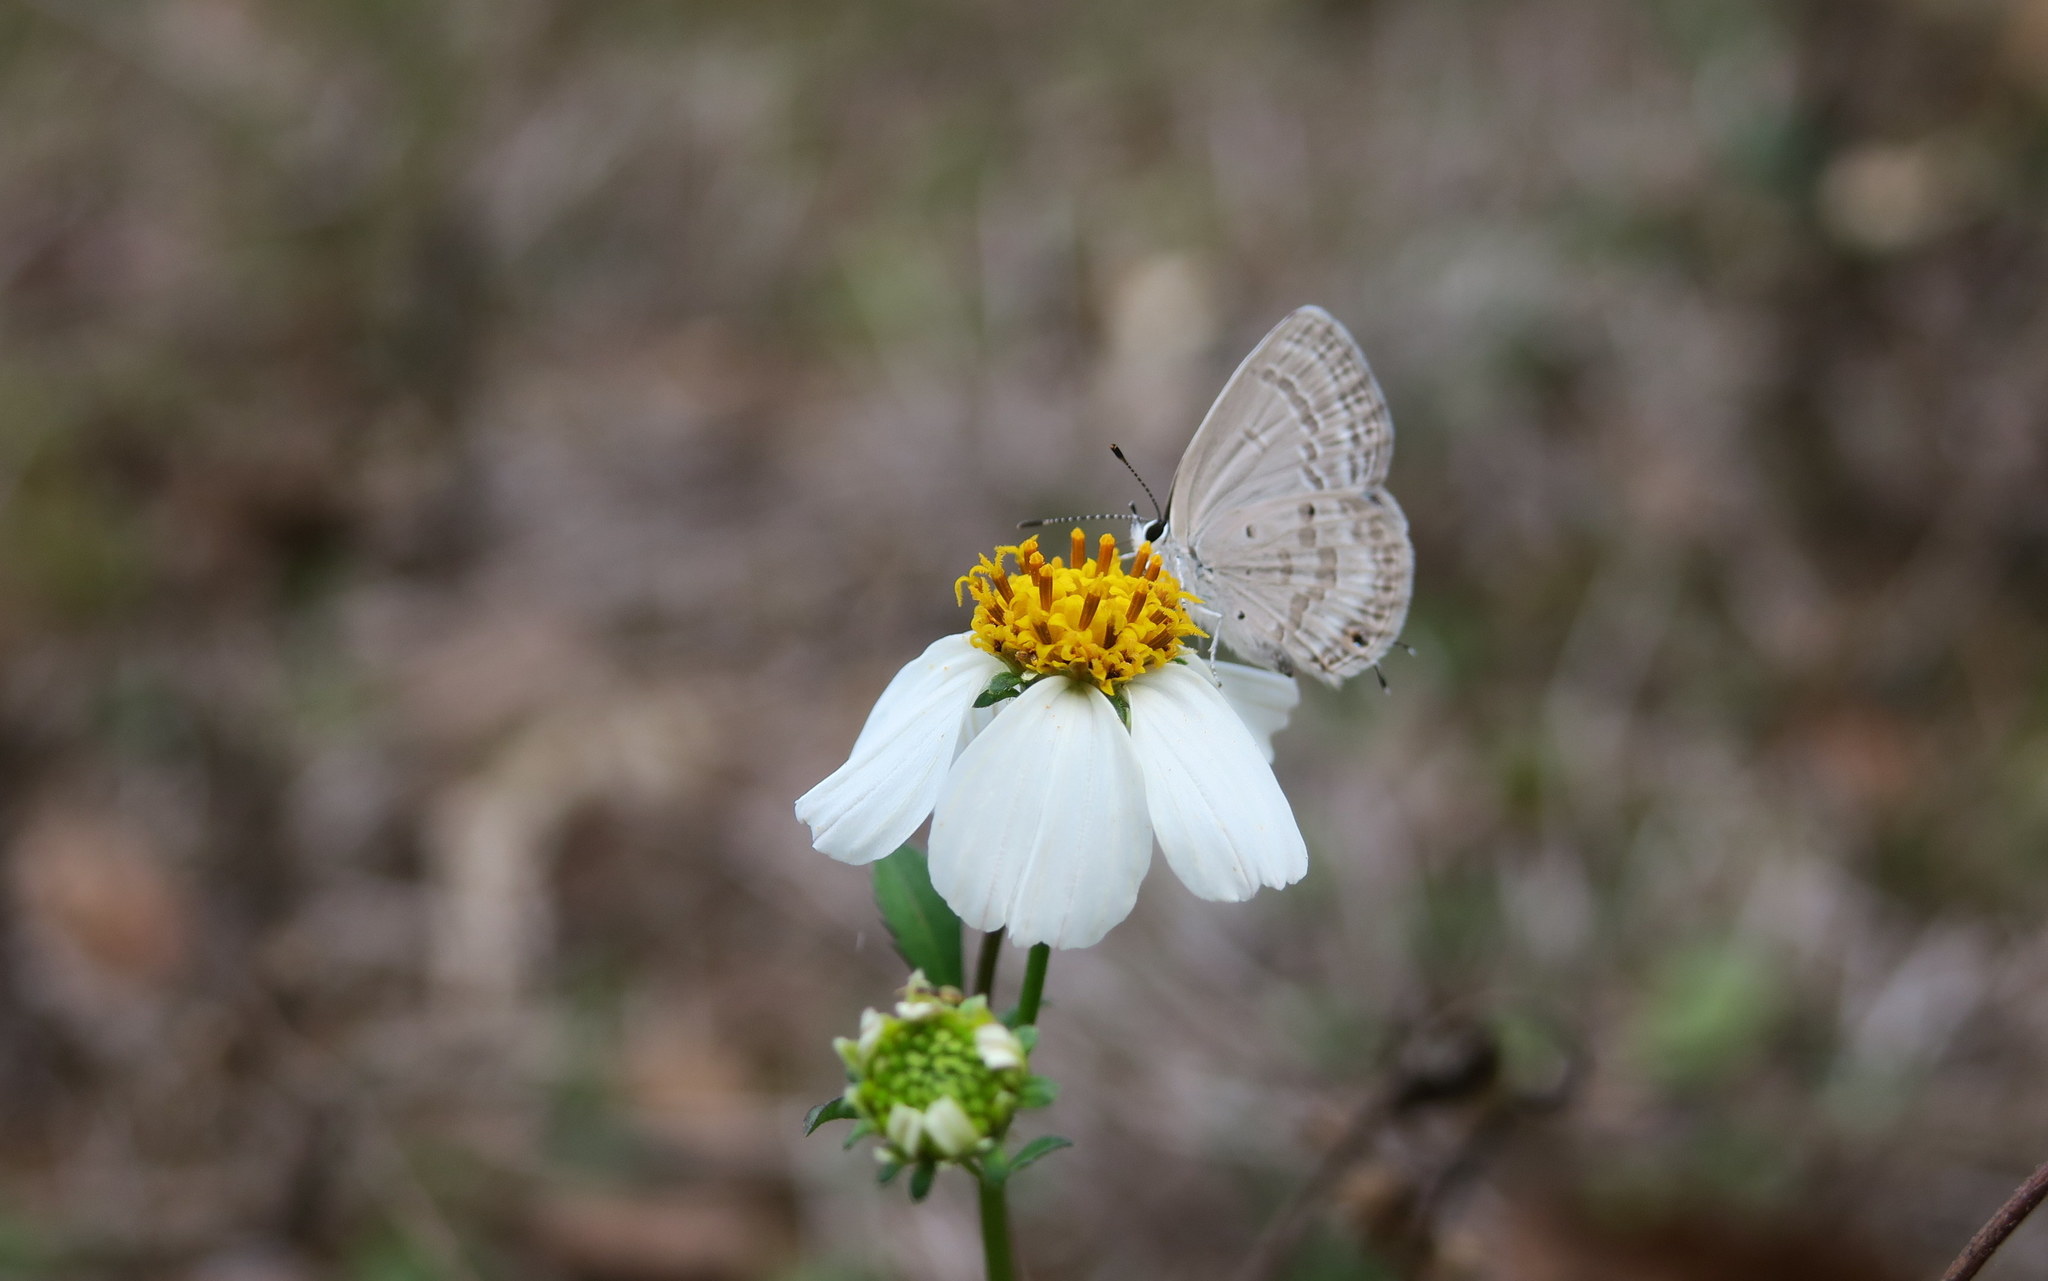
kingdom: Animalia
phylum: Arthropoda
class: Insecta
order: Lepidoptera
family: Lycaenidae
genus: Luthrodes
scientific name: Luthrodes pandava
